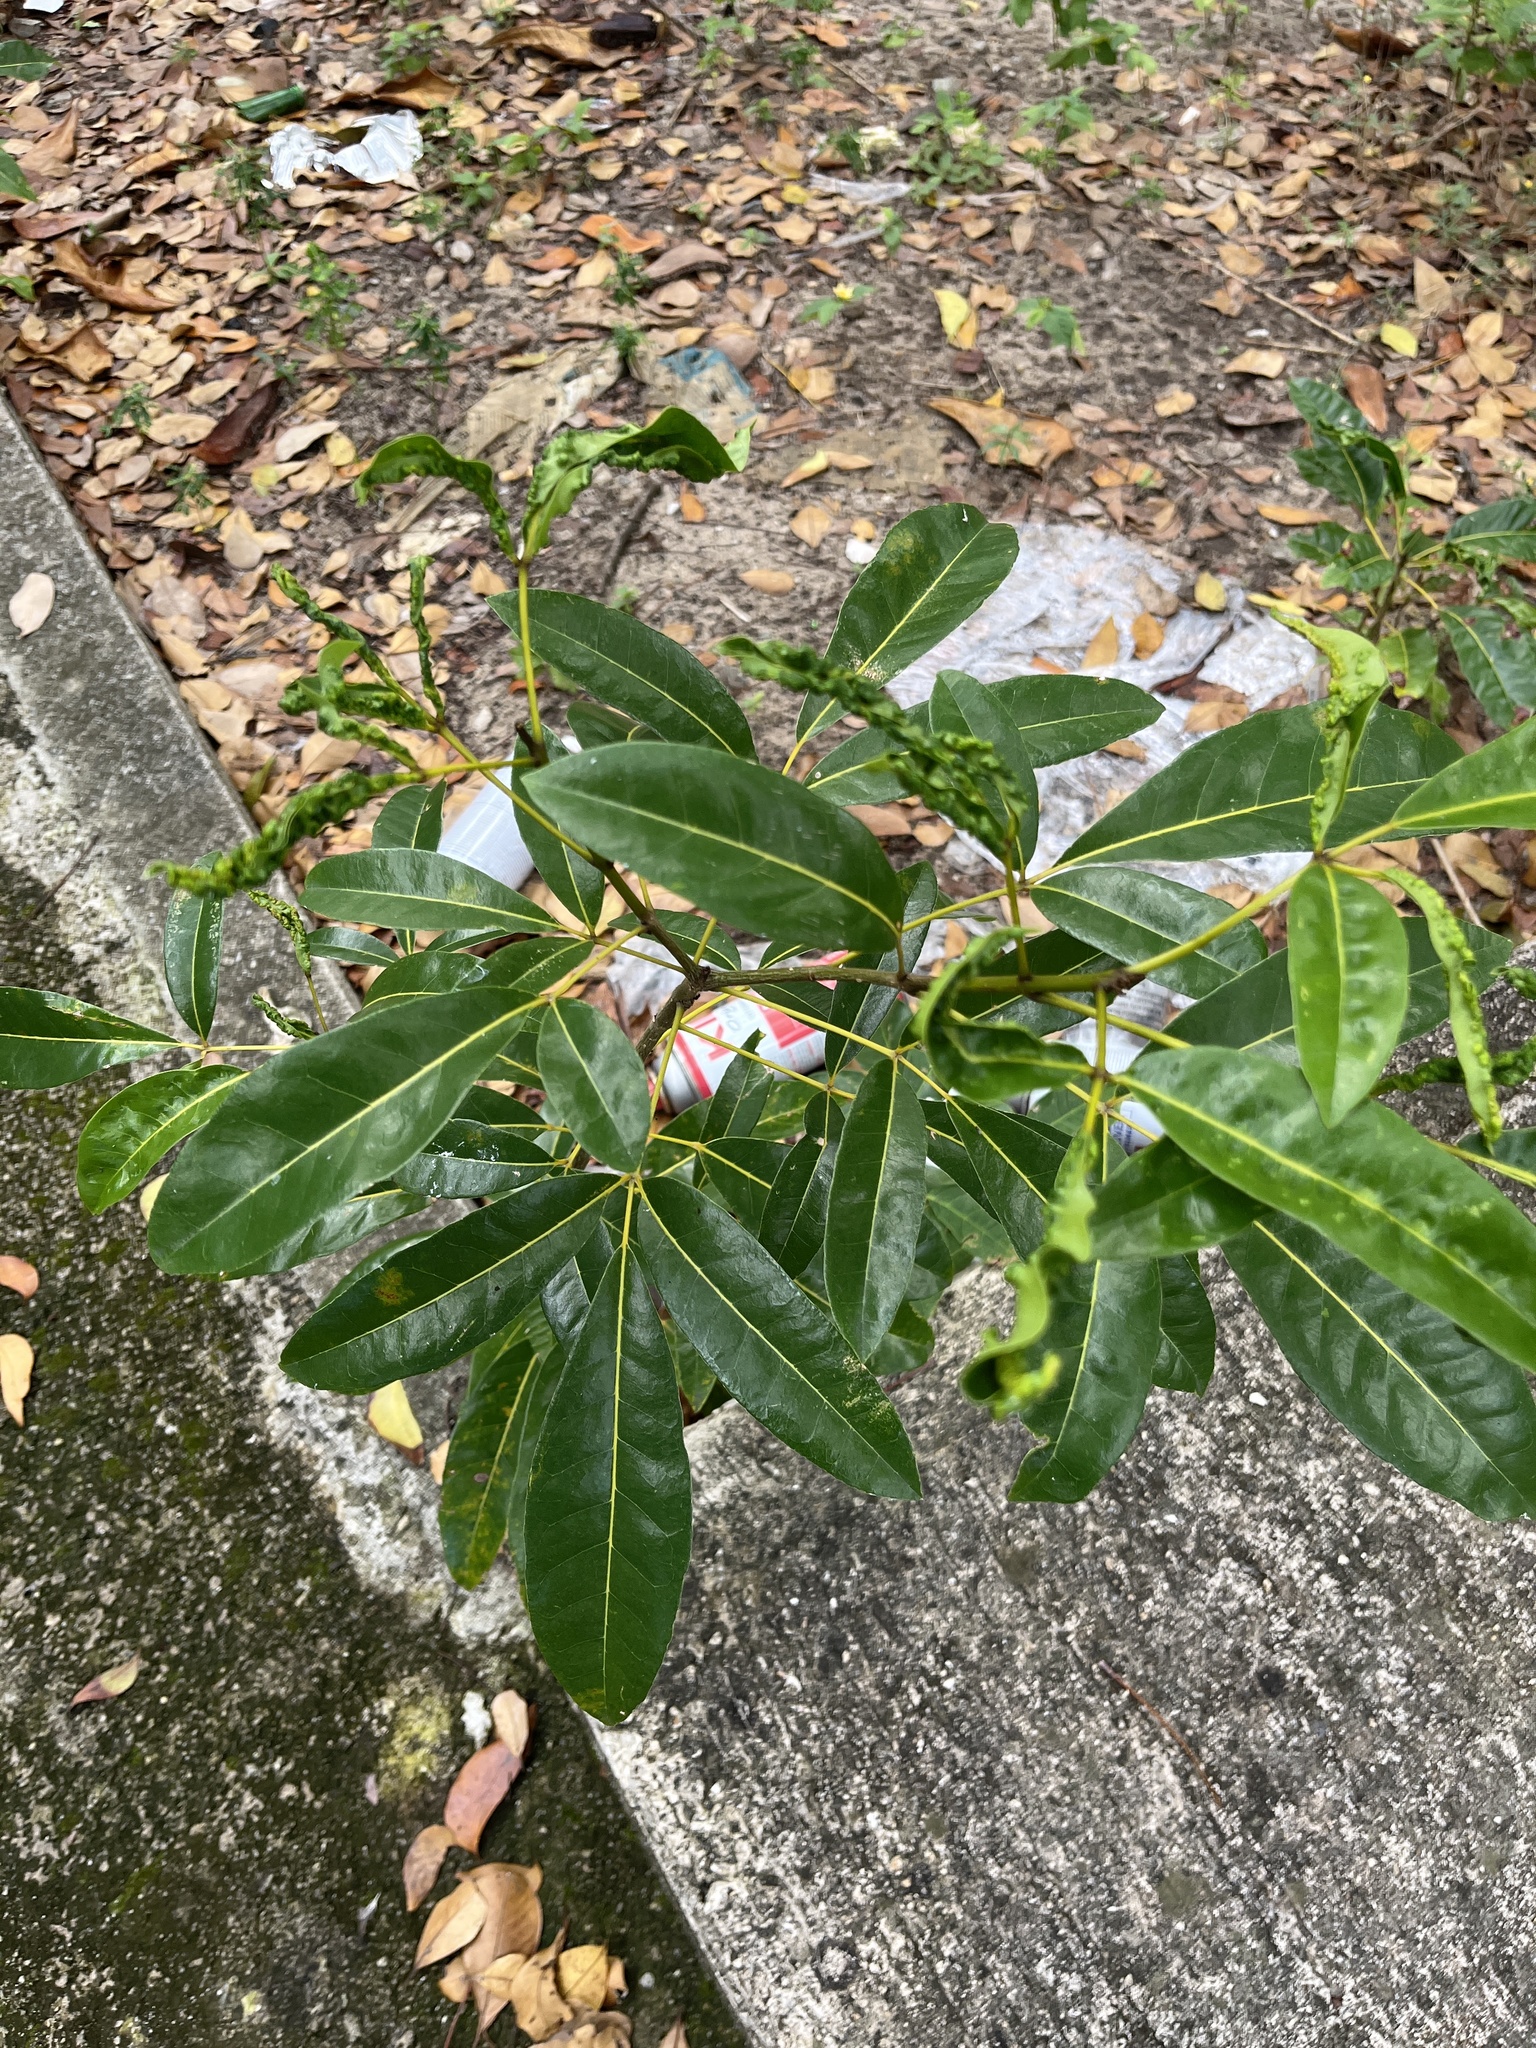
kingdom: Plantae
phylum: Tracheophyta
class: Magnoliopsida
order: Lamiales
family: Bignoniaceae
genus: Tabebuia
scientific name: Tabebuia heterophylla
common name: White cedar
